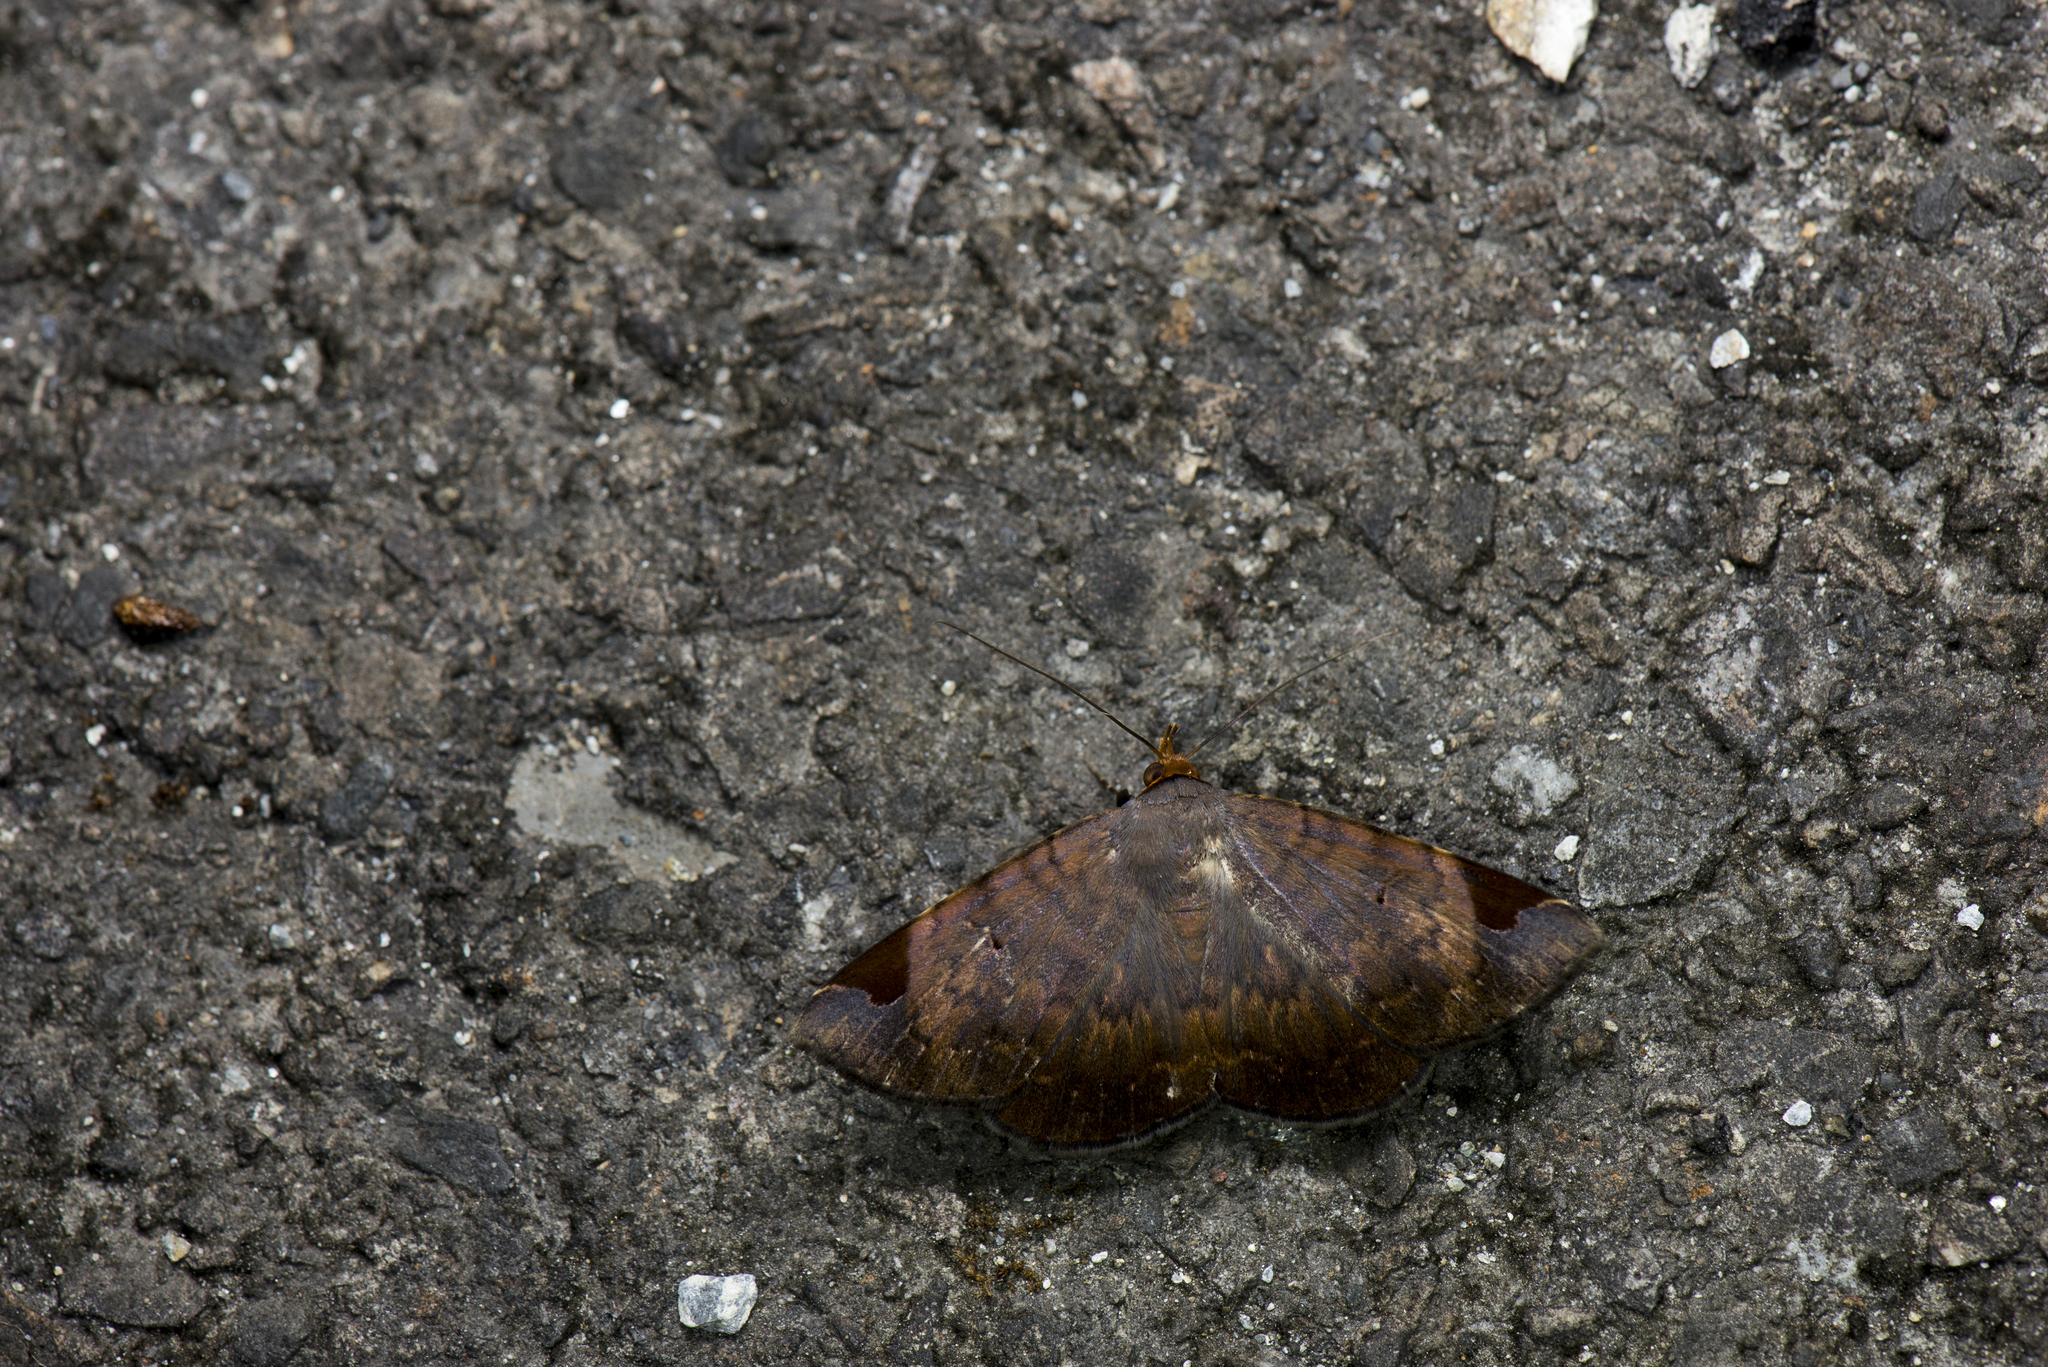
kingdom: Animalia
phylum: Arthropoda
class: Insecta
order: Lepidoptera
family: Erebidae
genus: Mecodina
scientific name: Mecodina praecipua
